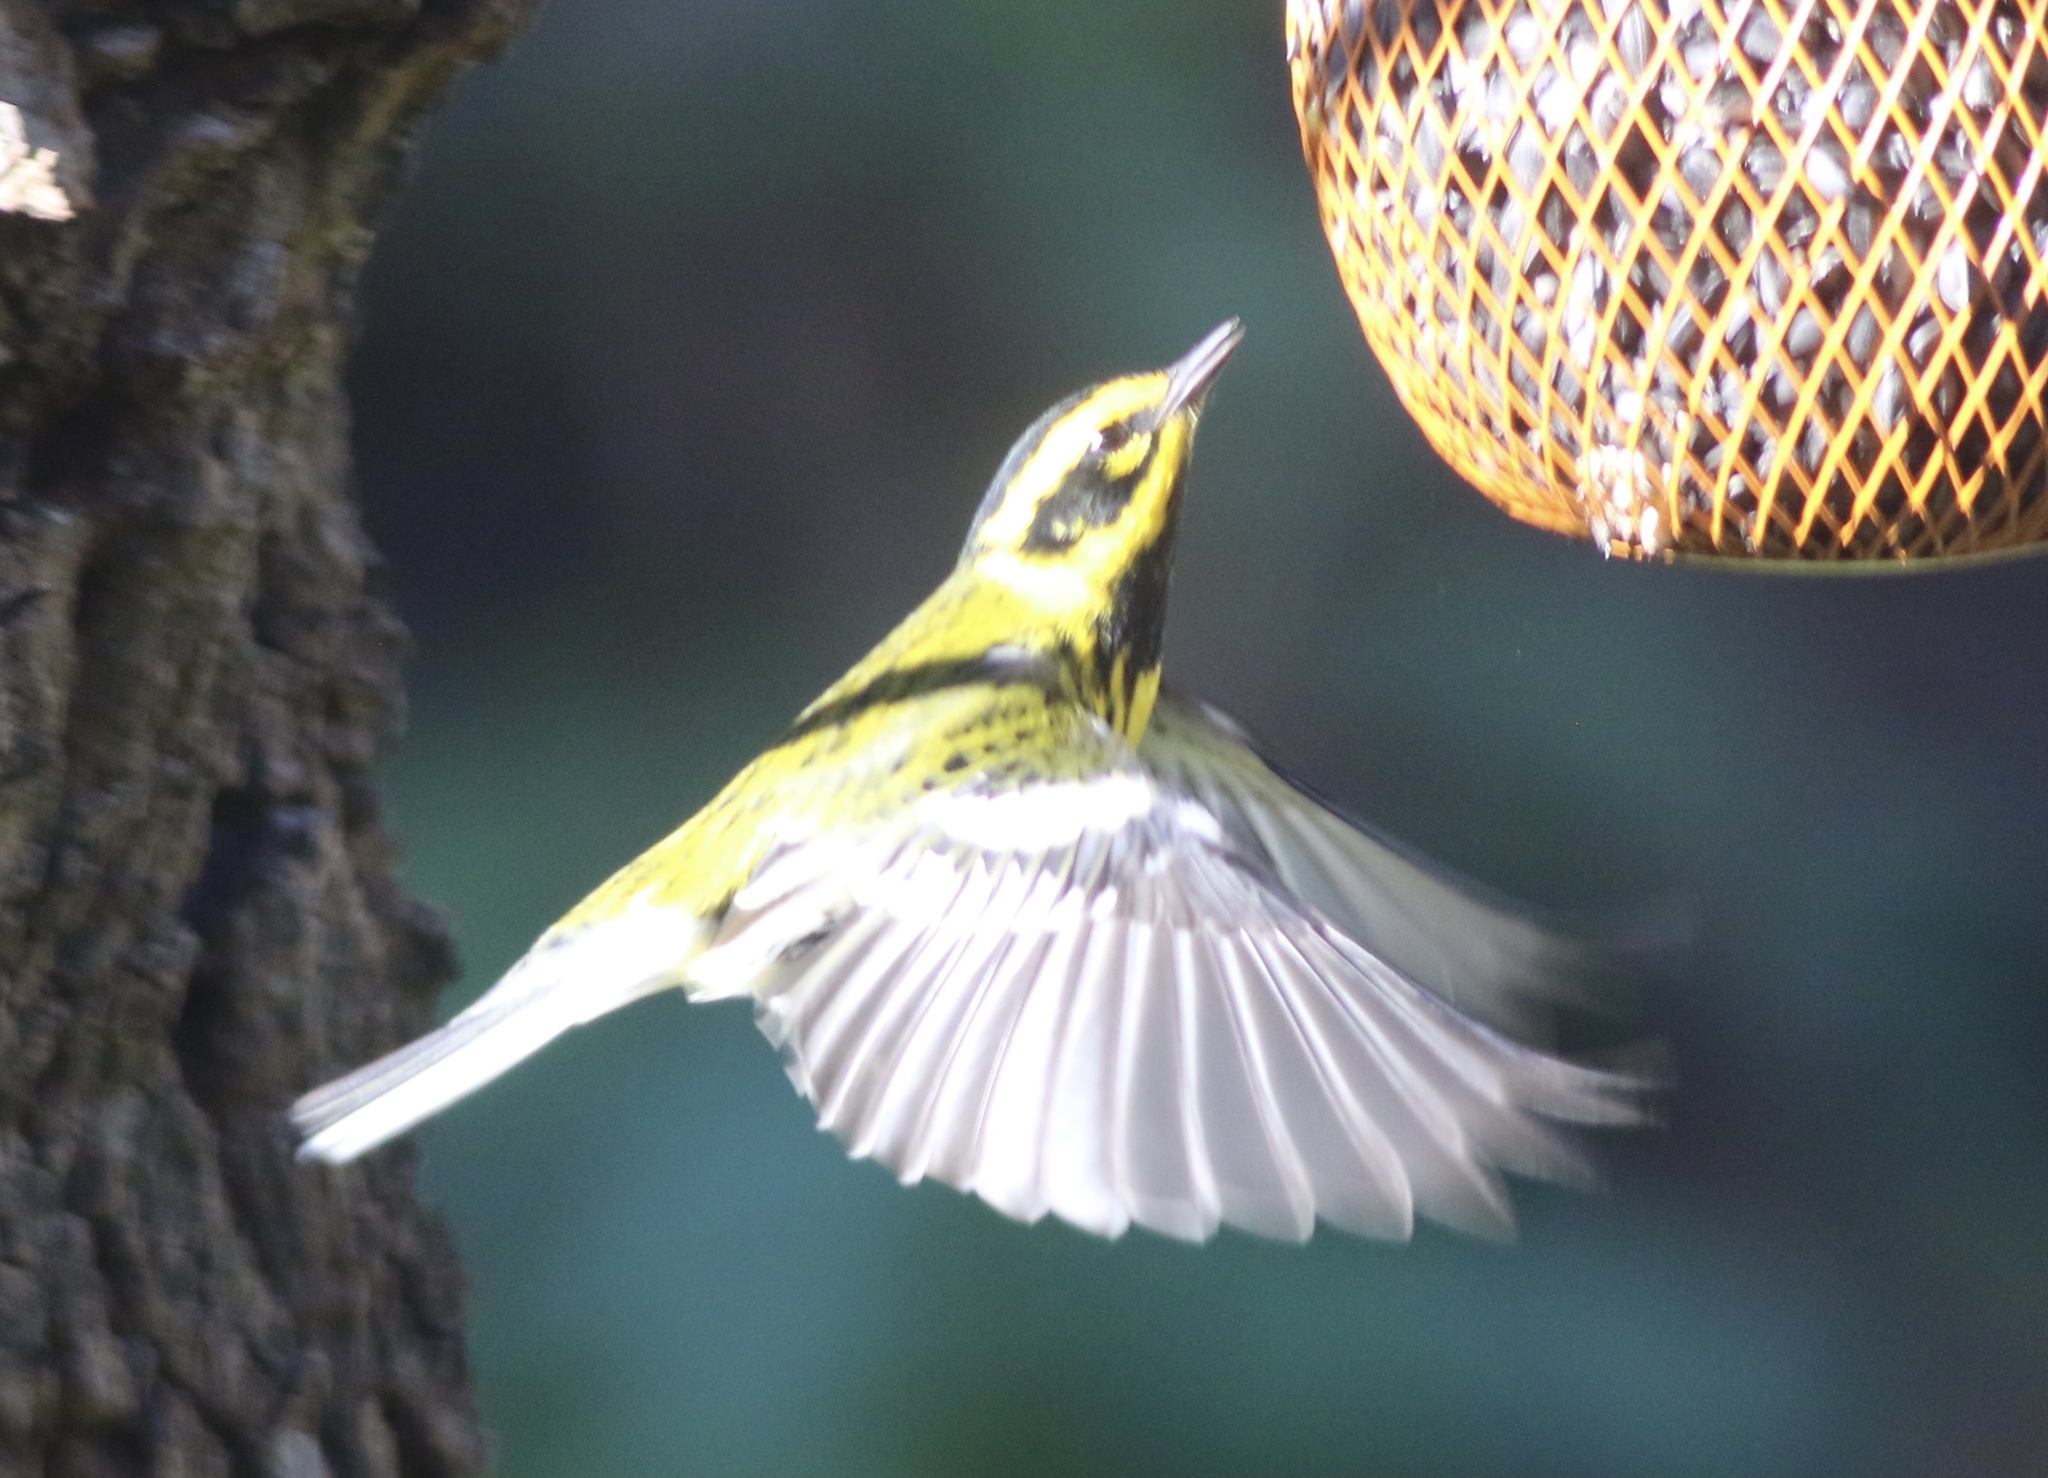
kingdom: Animalia
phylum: Chordata
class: Aves
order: Passeriformes
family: Parulidae
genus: Setophaga
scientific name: Setophaga townsendi
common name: Townsend's warbler
